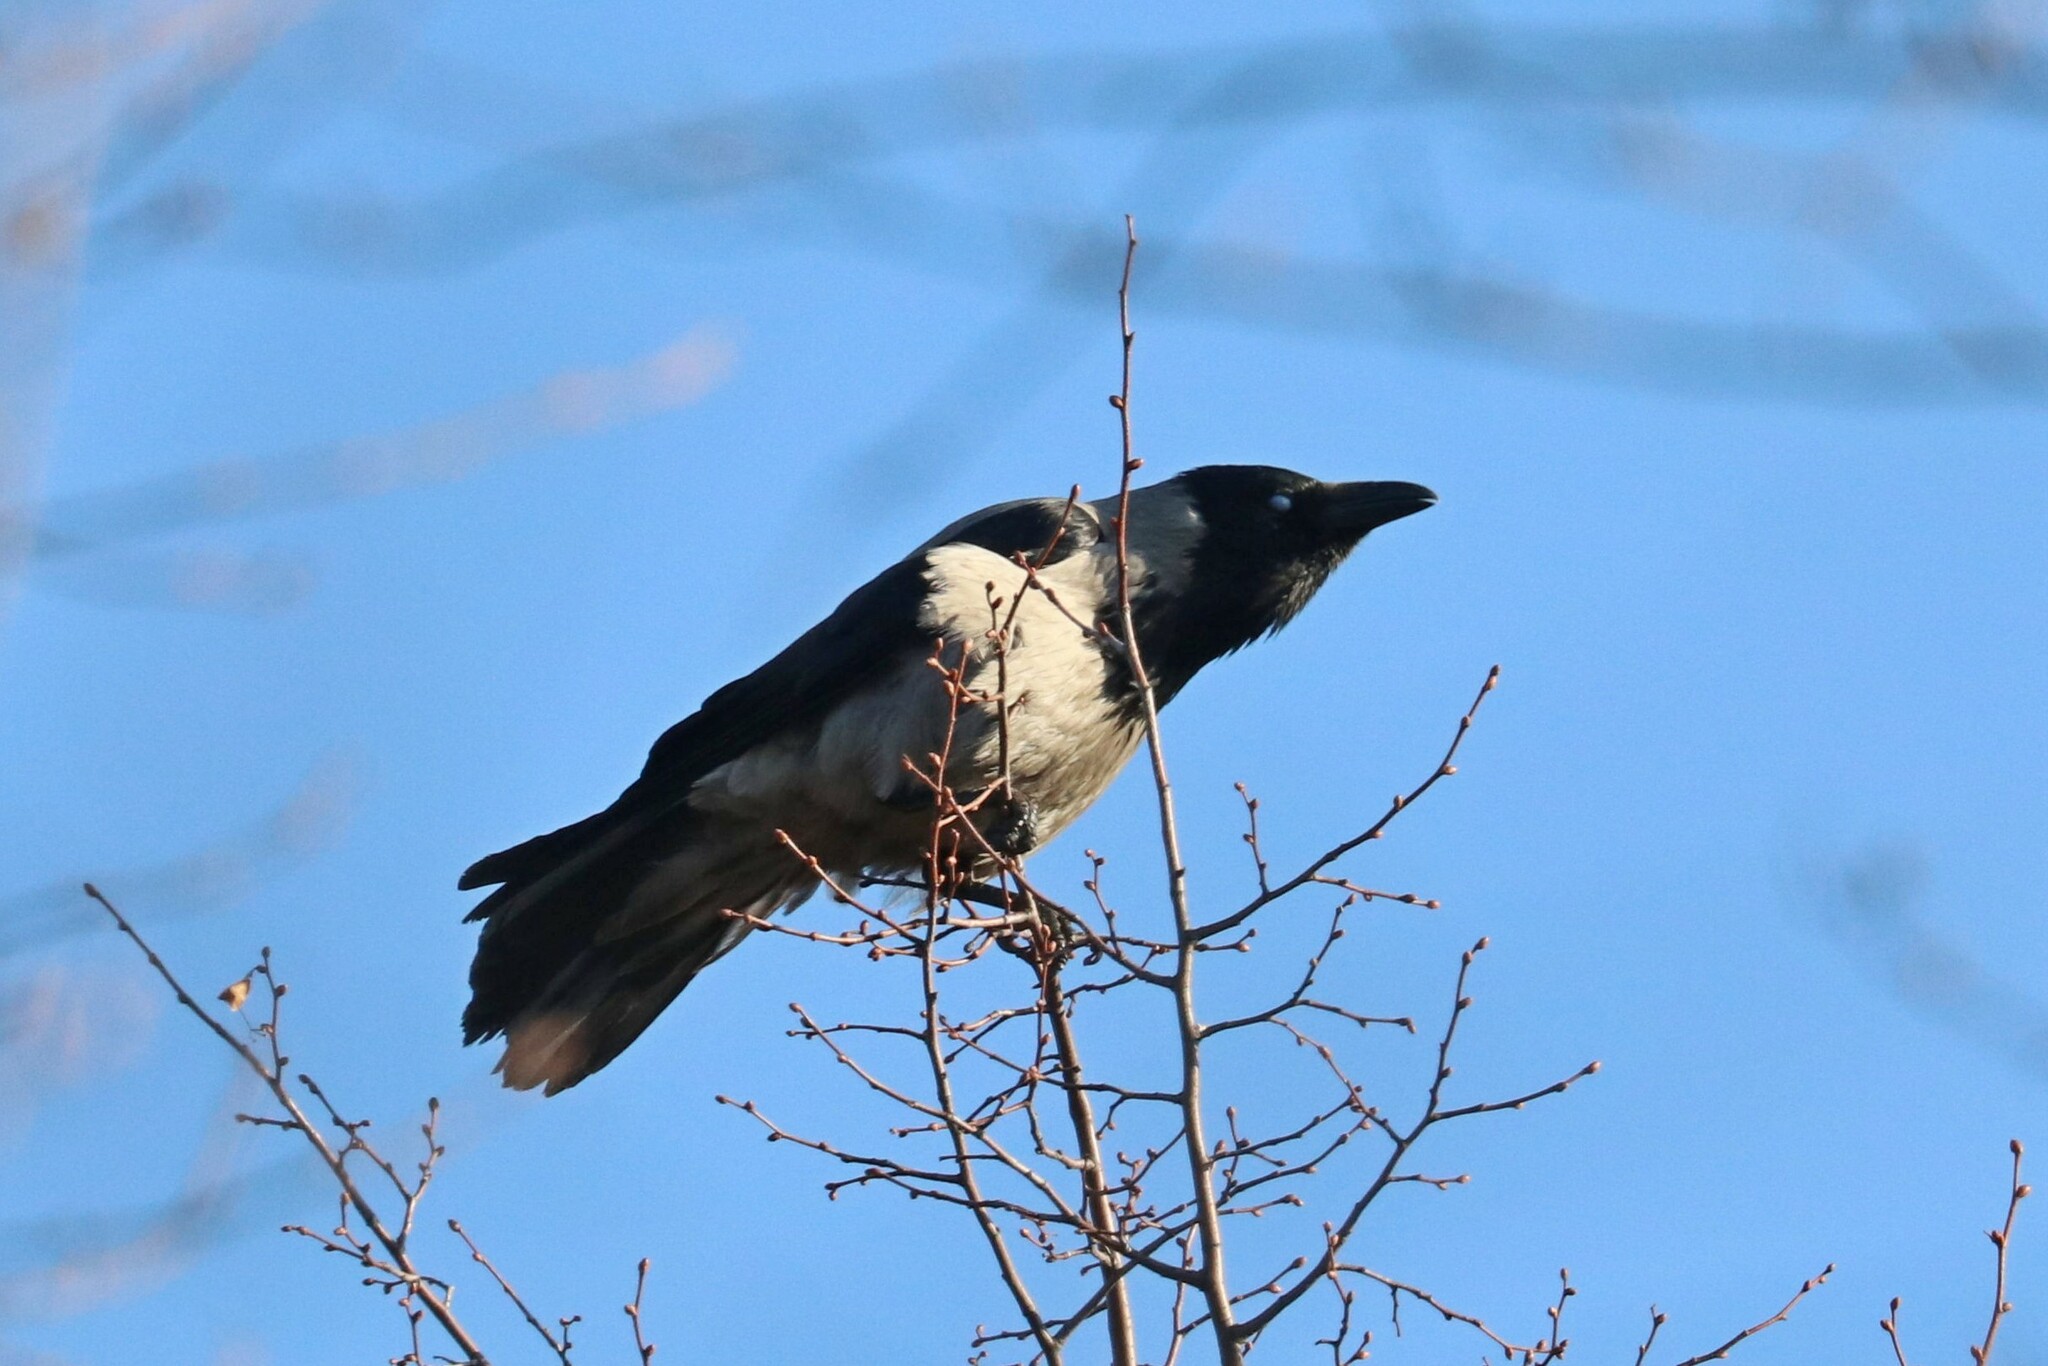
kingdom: Animalia
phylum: Chordata
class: Aves
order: Passeriformes
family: Corvidae
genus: Corvus
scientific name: Corvus cornix
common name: Hooded crow
